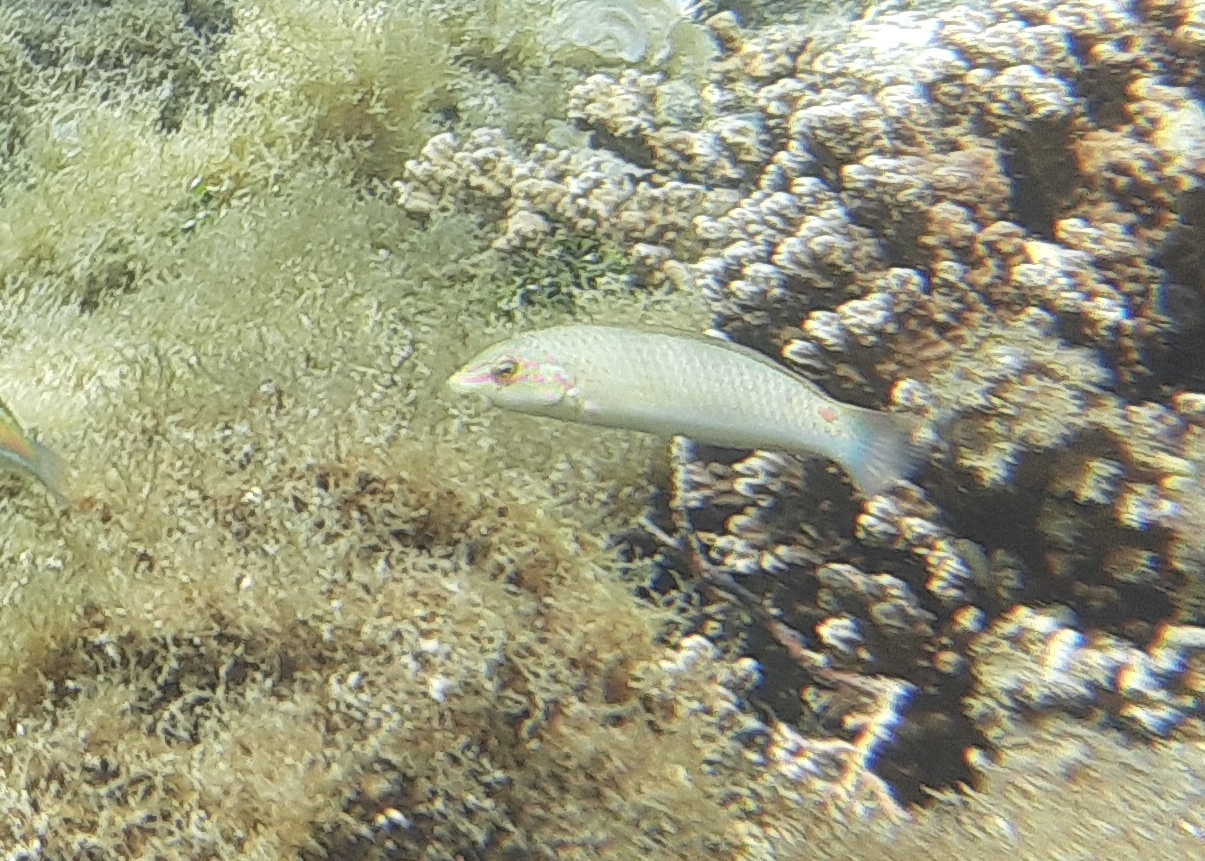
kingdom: Animalia
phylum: Chordata
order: Perciformes
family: Labridae
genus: Halichoeres
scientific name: Halichoeres trimaculatus
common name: Three-spot wrasse
